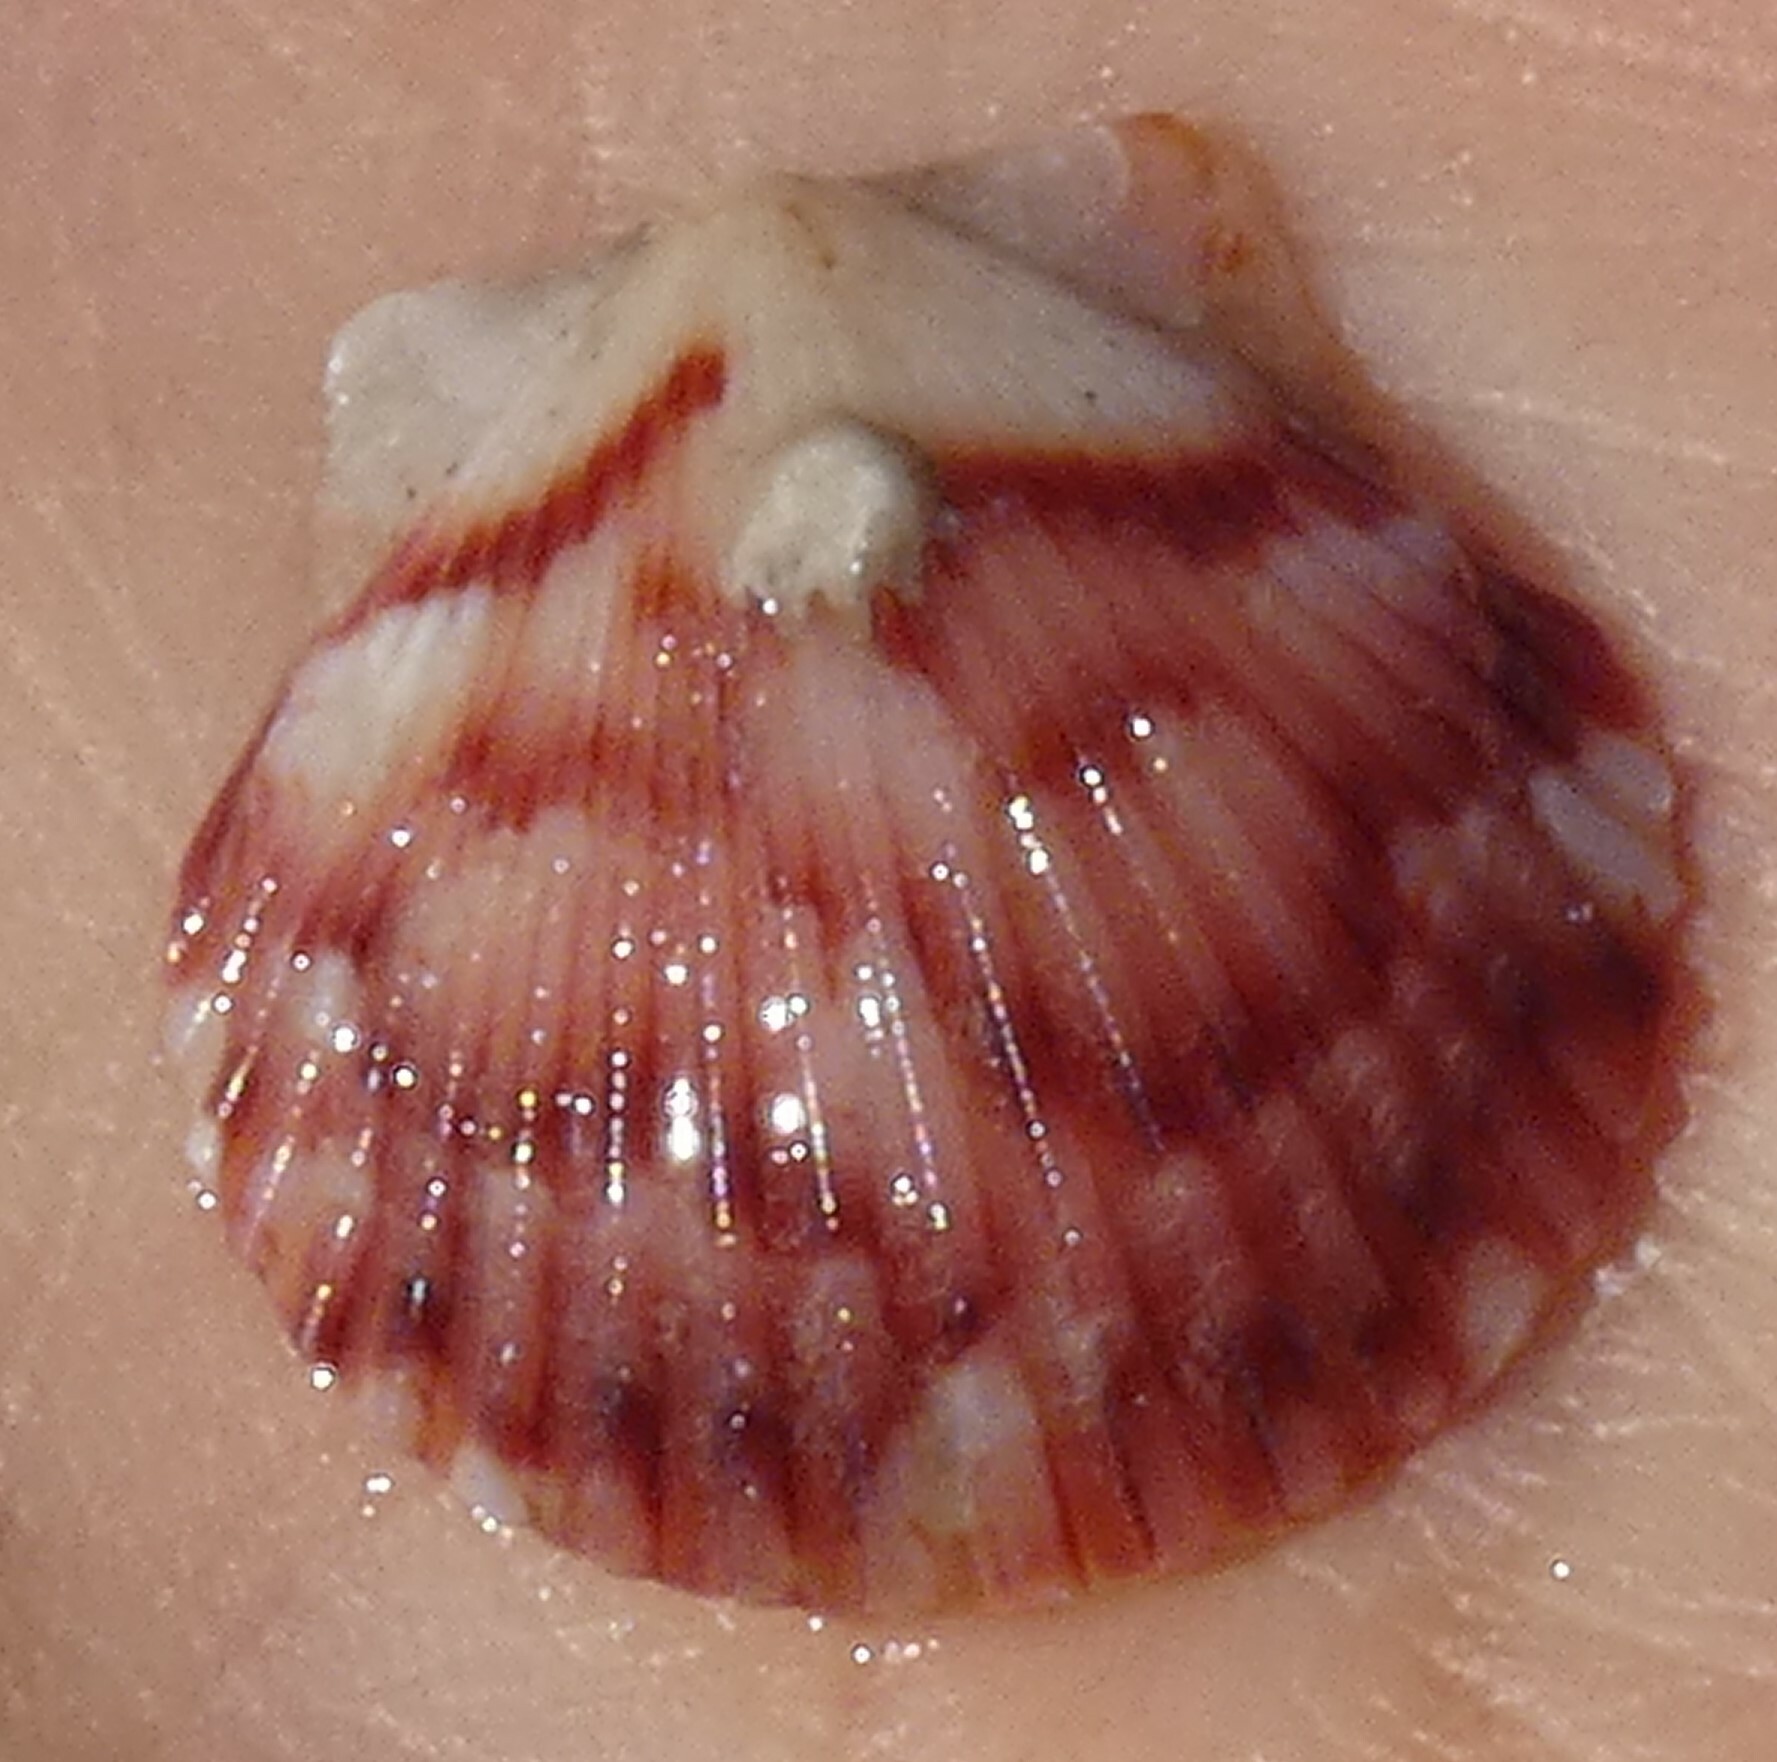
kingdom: Animalia
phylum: Mollusca
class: Bivalvia
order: Pectinida
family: Pectinidae
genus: Argopecten
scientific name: Argopecten gibbus
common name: Atlantic calico scallop
